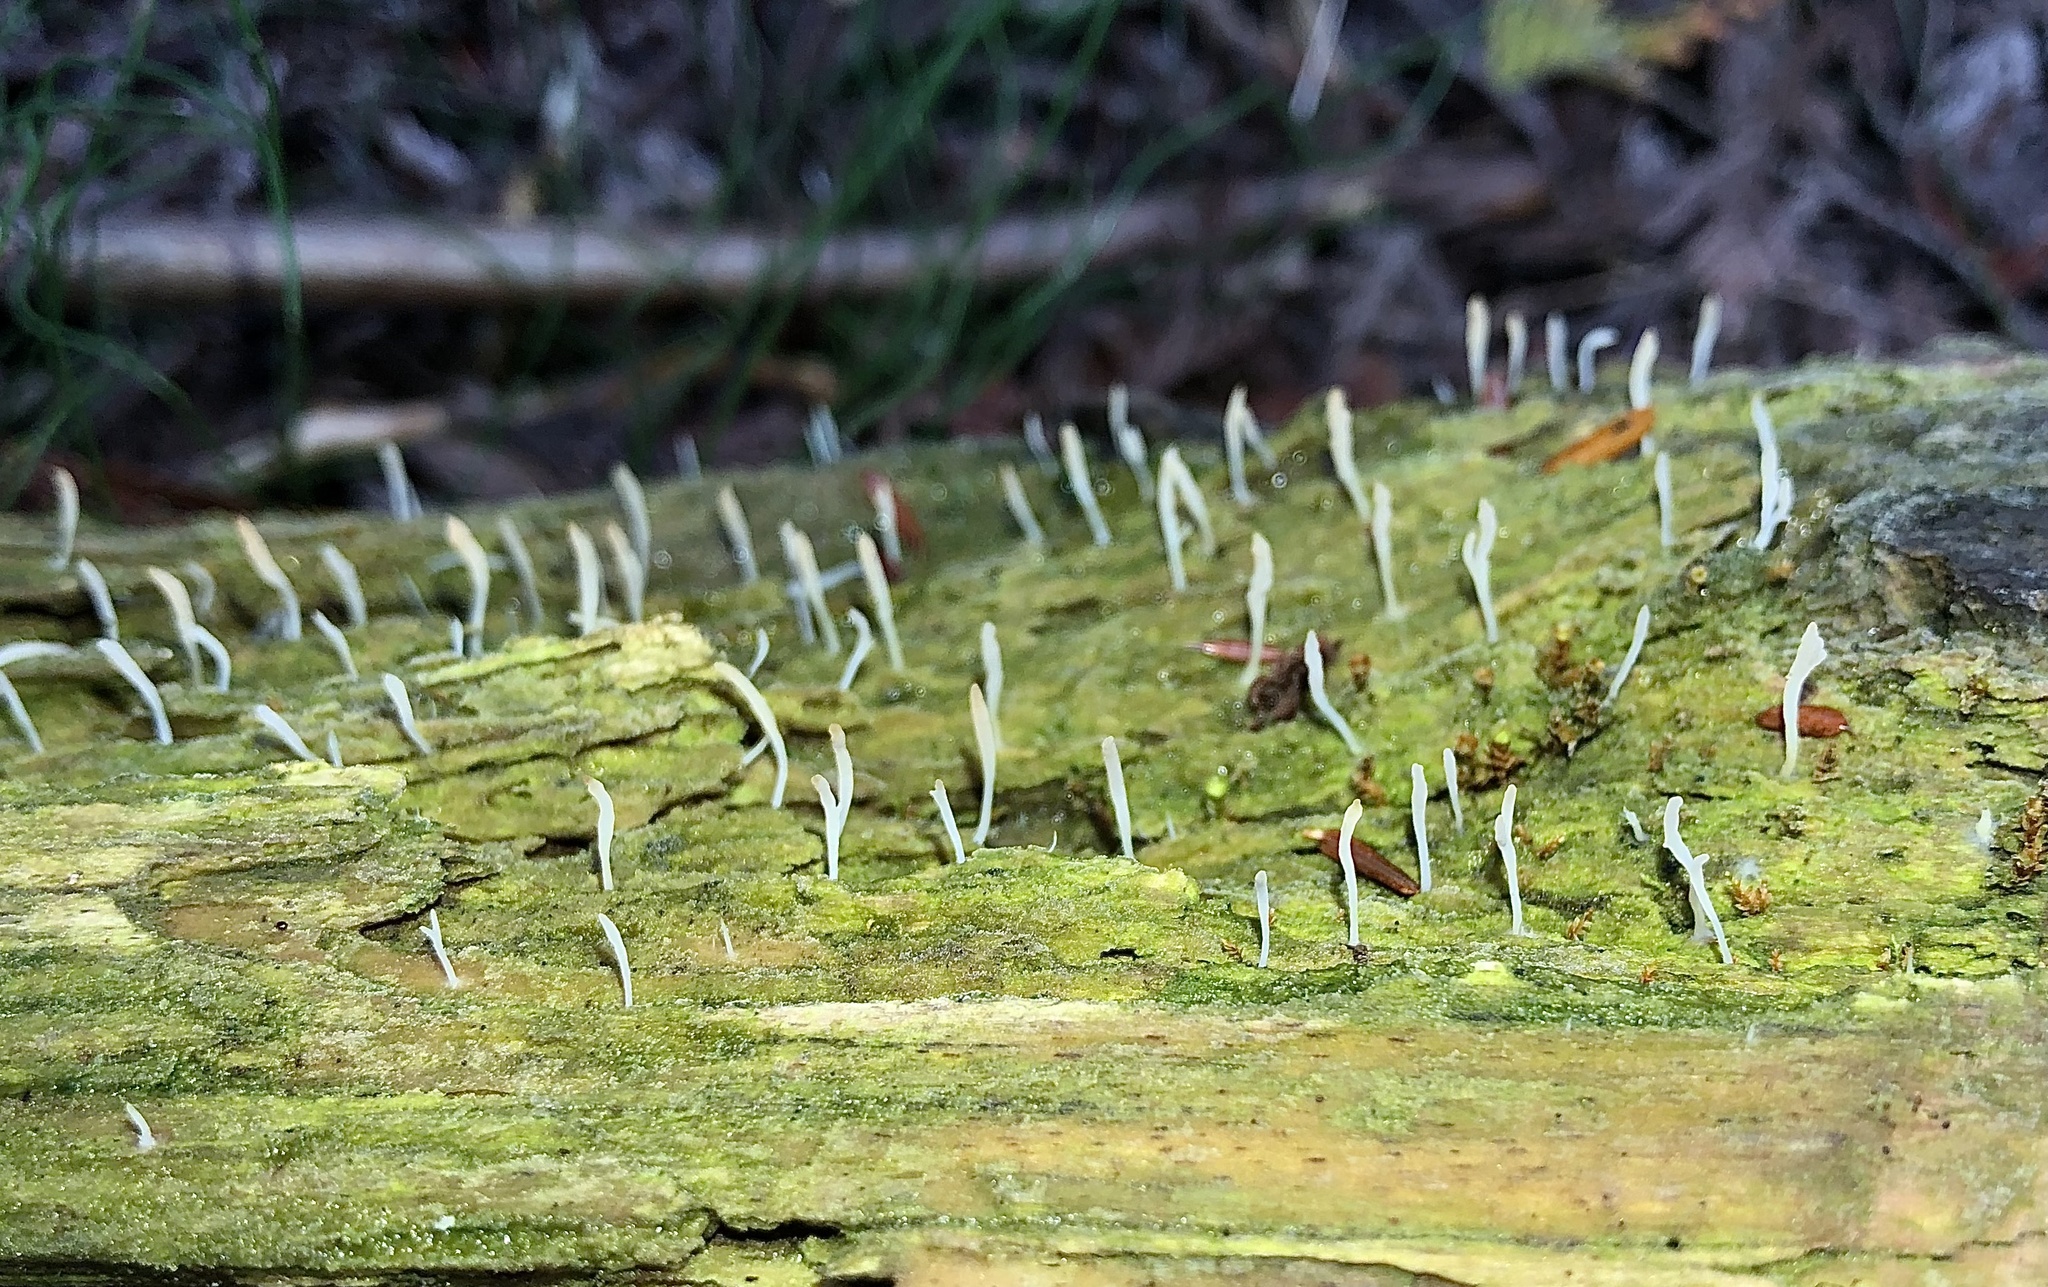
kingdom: Fungi
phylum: Basidiomycota
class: Agaricomycetes
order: Cantharellales
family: Hydnaceae
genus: Multiclavula
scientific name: Multiclavula mucida
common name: White green-algae coral
